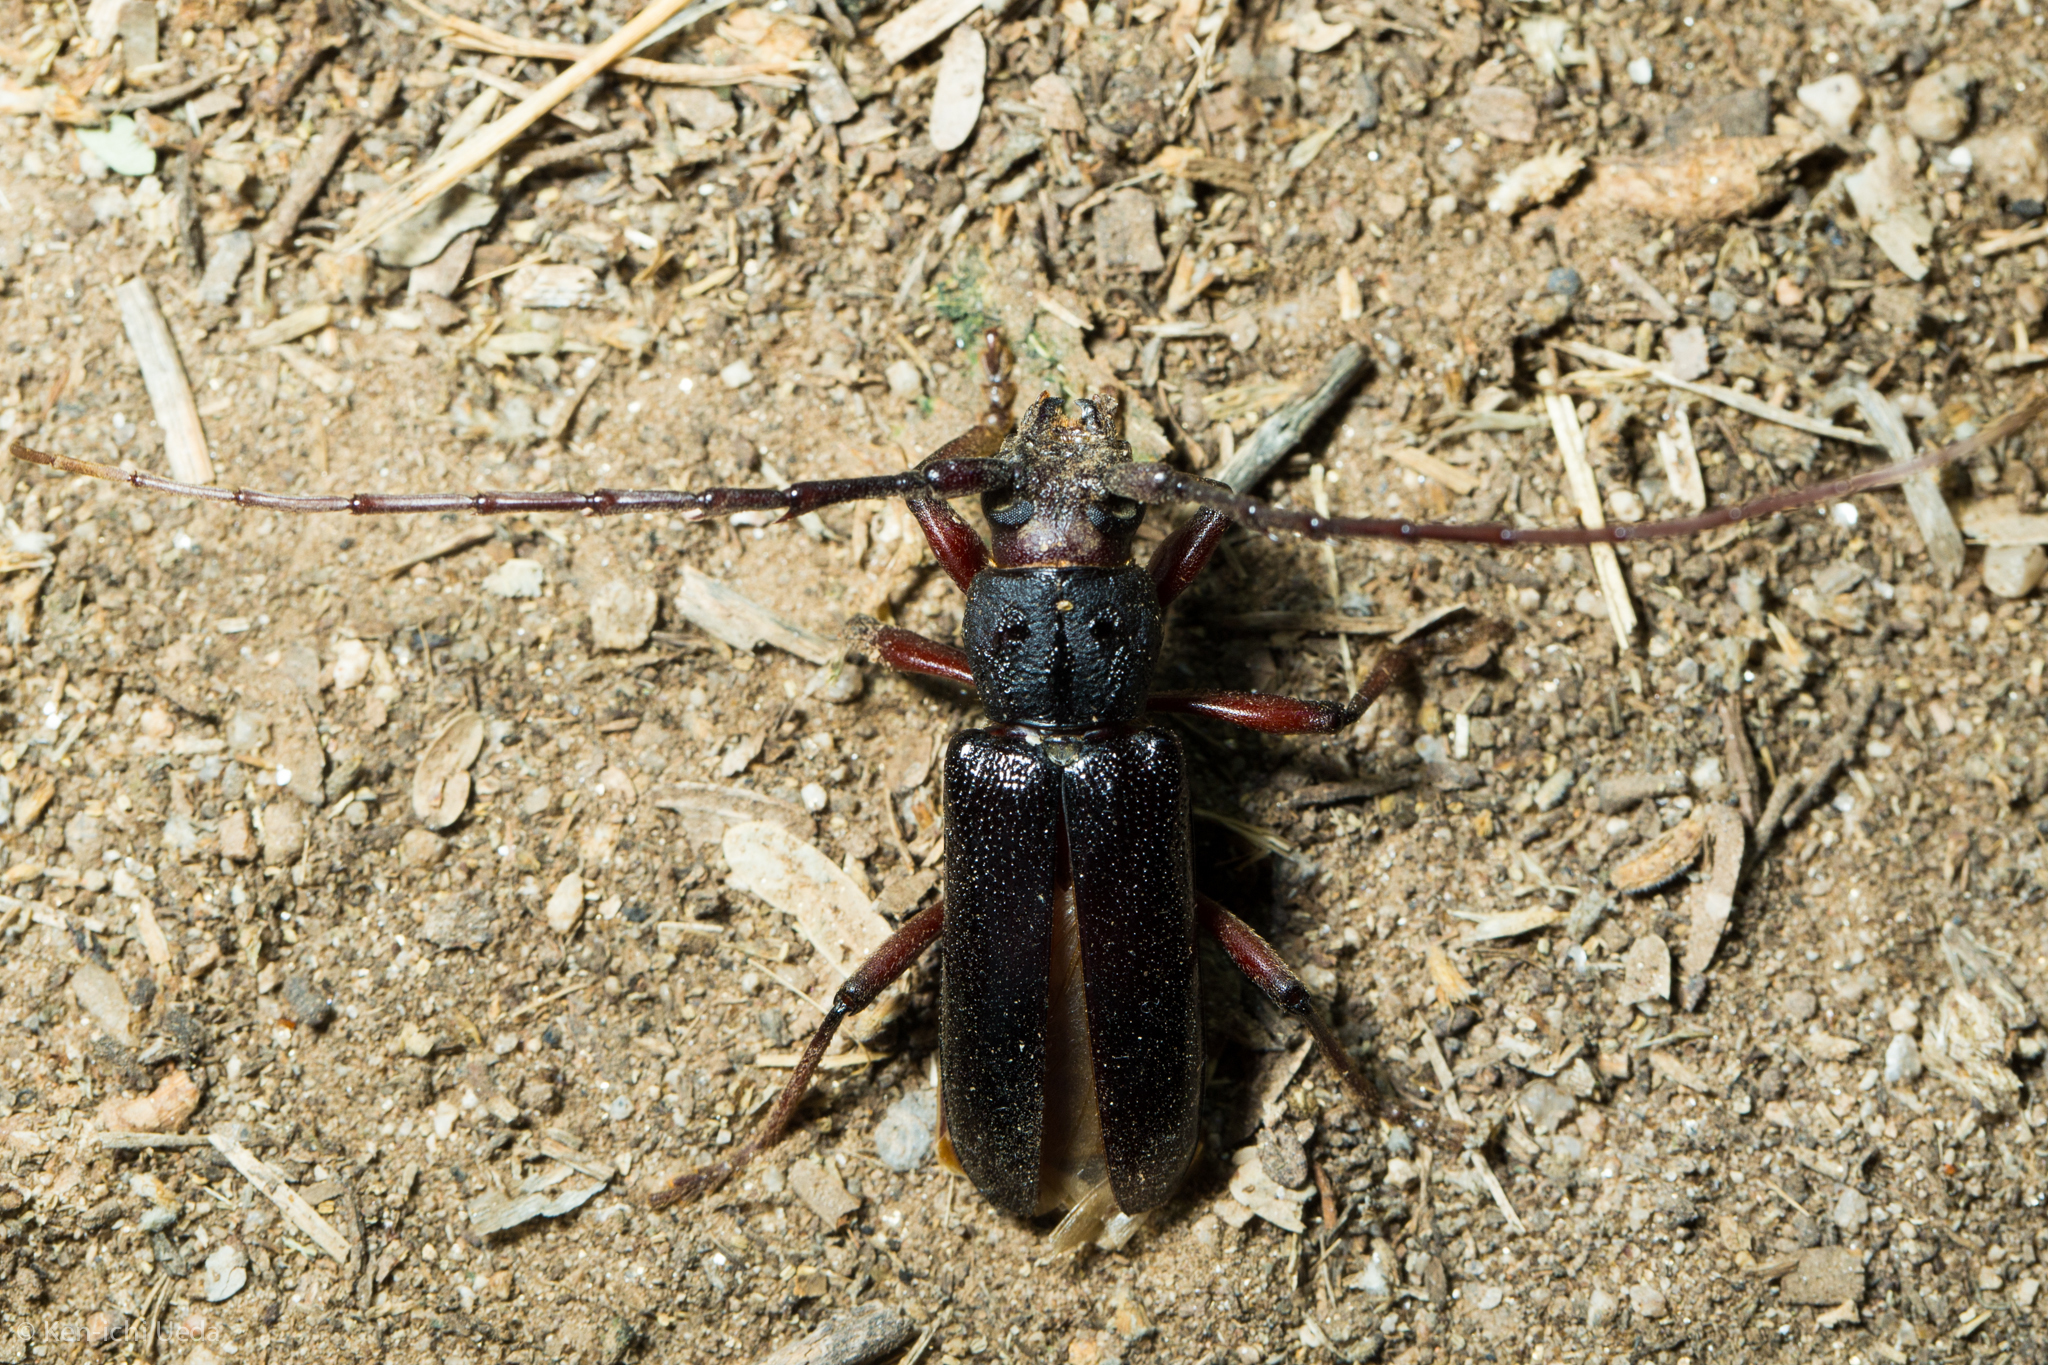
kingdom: Animalia
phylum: Arthropoda
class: Insecta
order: Coleoptera
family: Cerambycidae
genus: Enaphalodes
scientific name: Enaphalodes seminitidus
